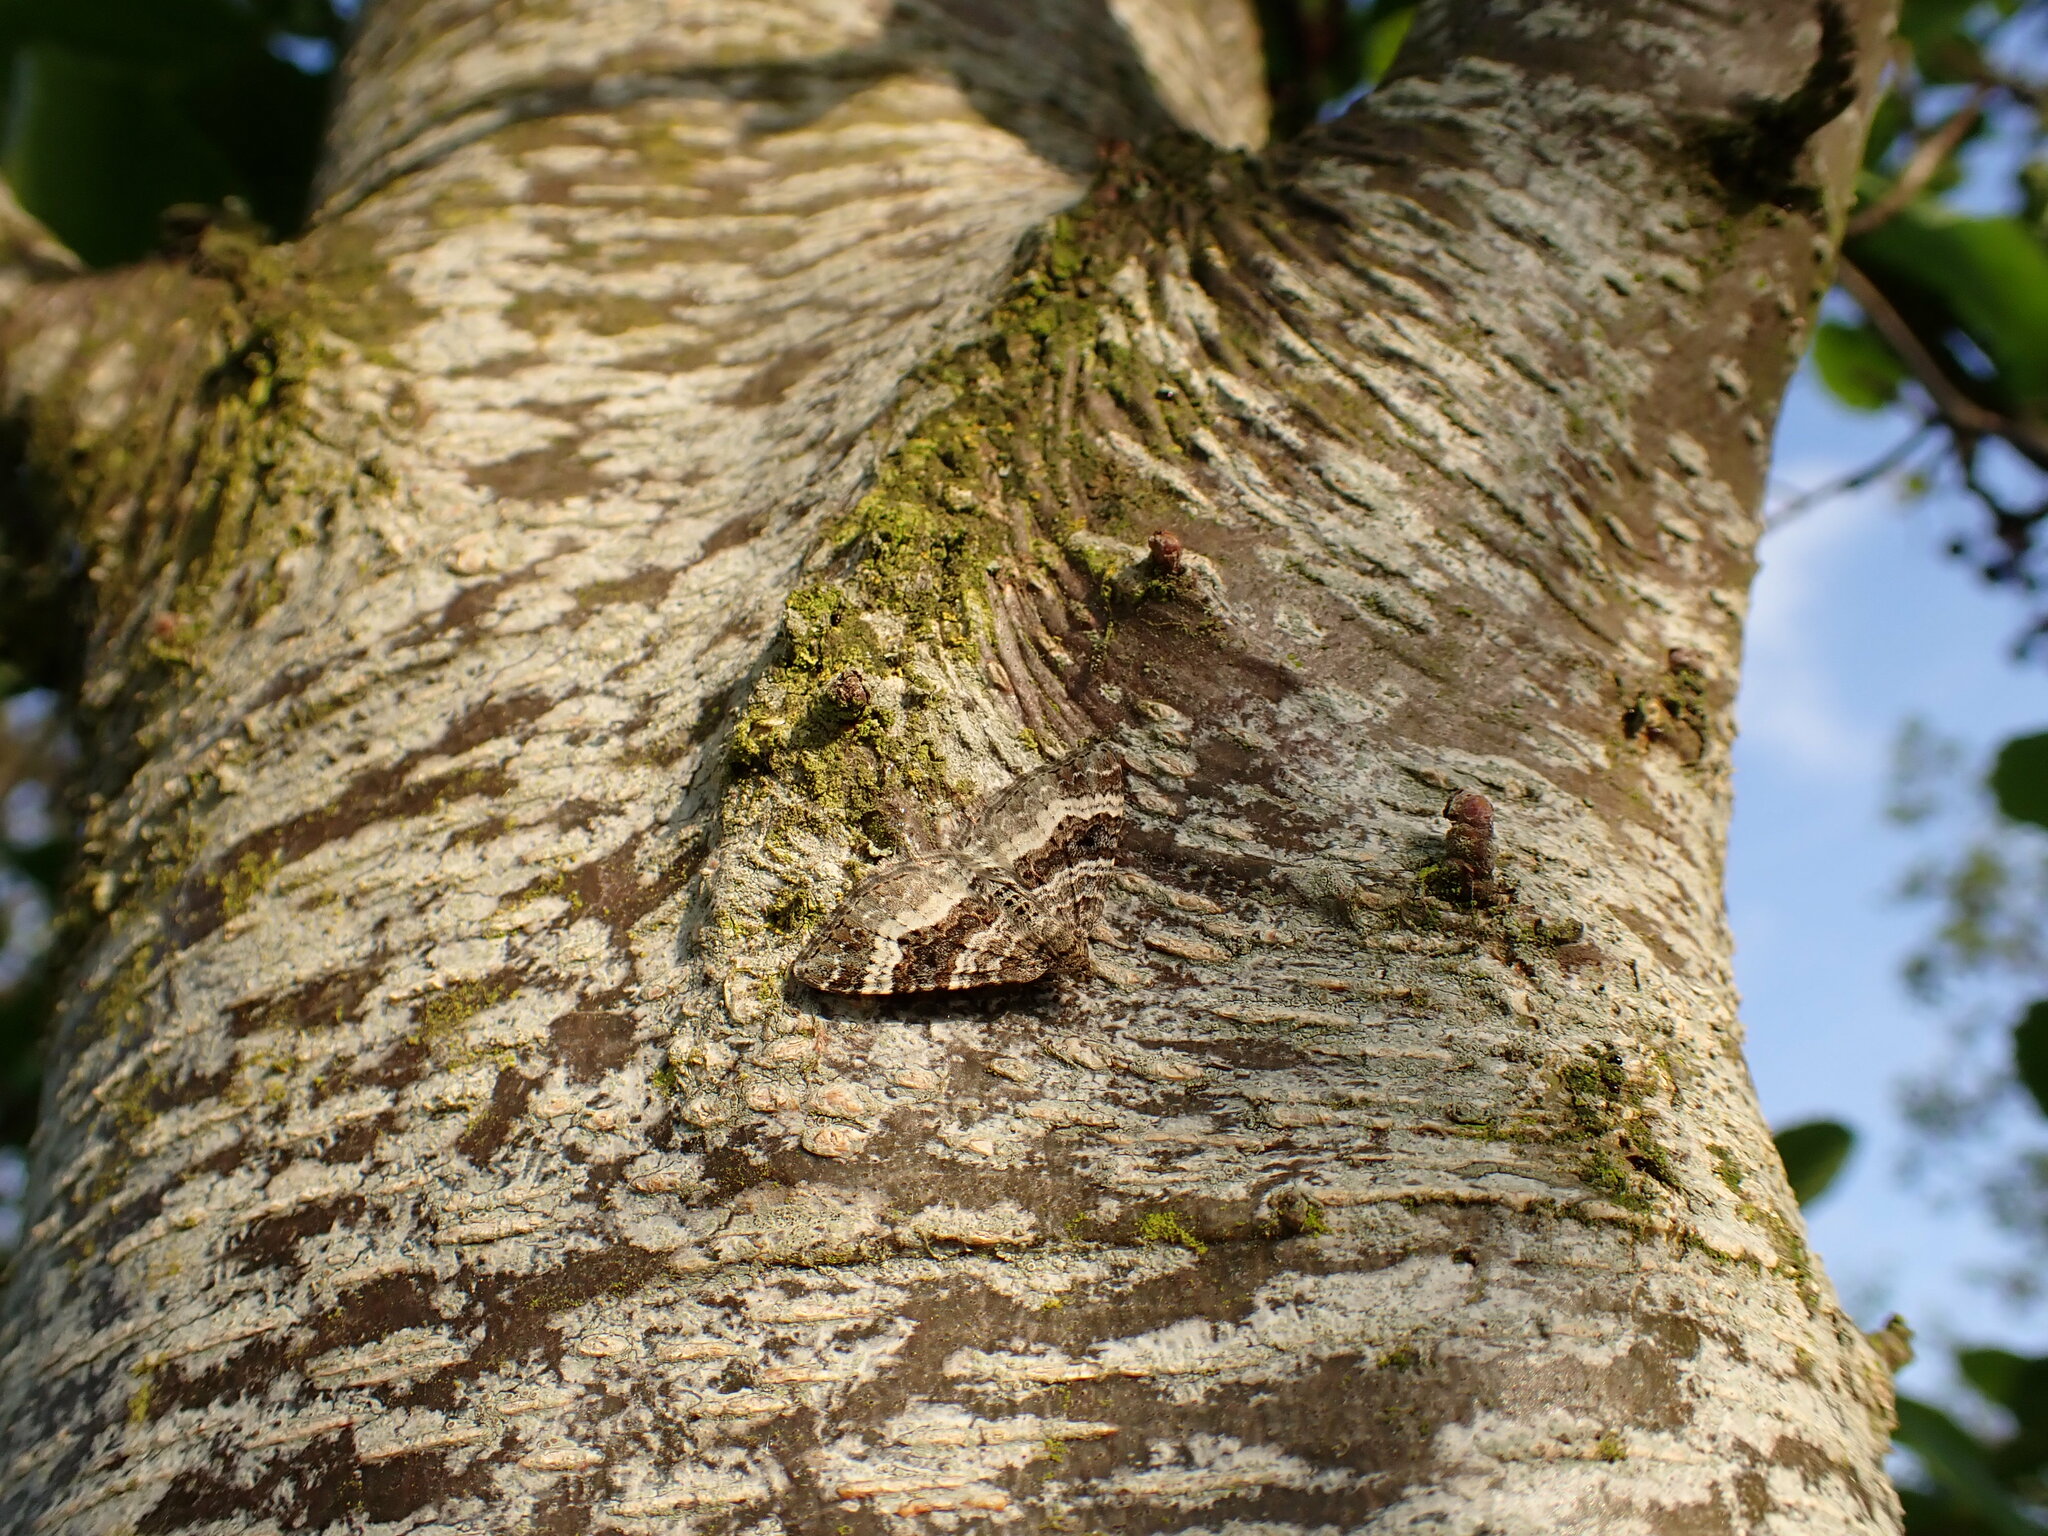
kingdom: Animalia
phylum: Arthropoda
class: Insecta
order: Lepidoptera
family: Geometridae
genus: Epirrhoe
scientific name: Epirrhoe alternata
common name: Common carpet
